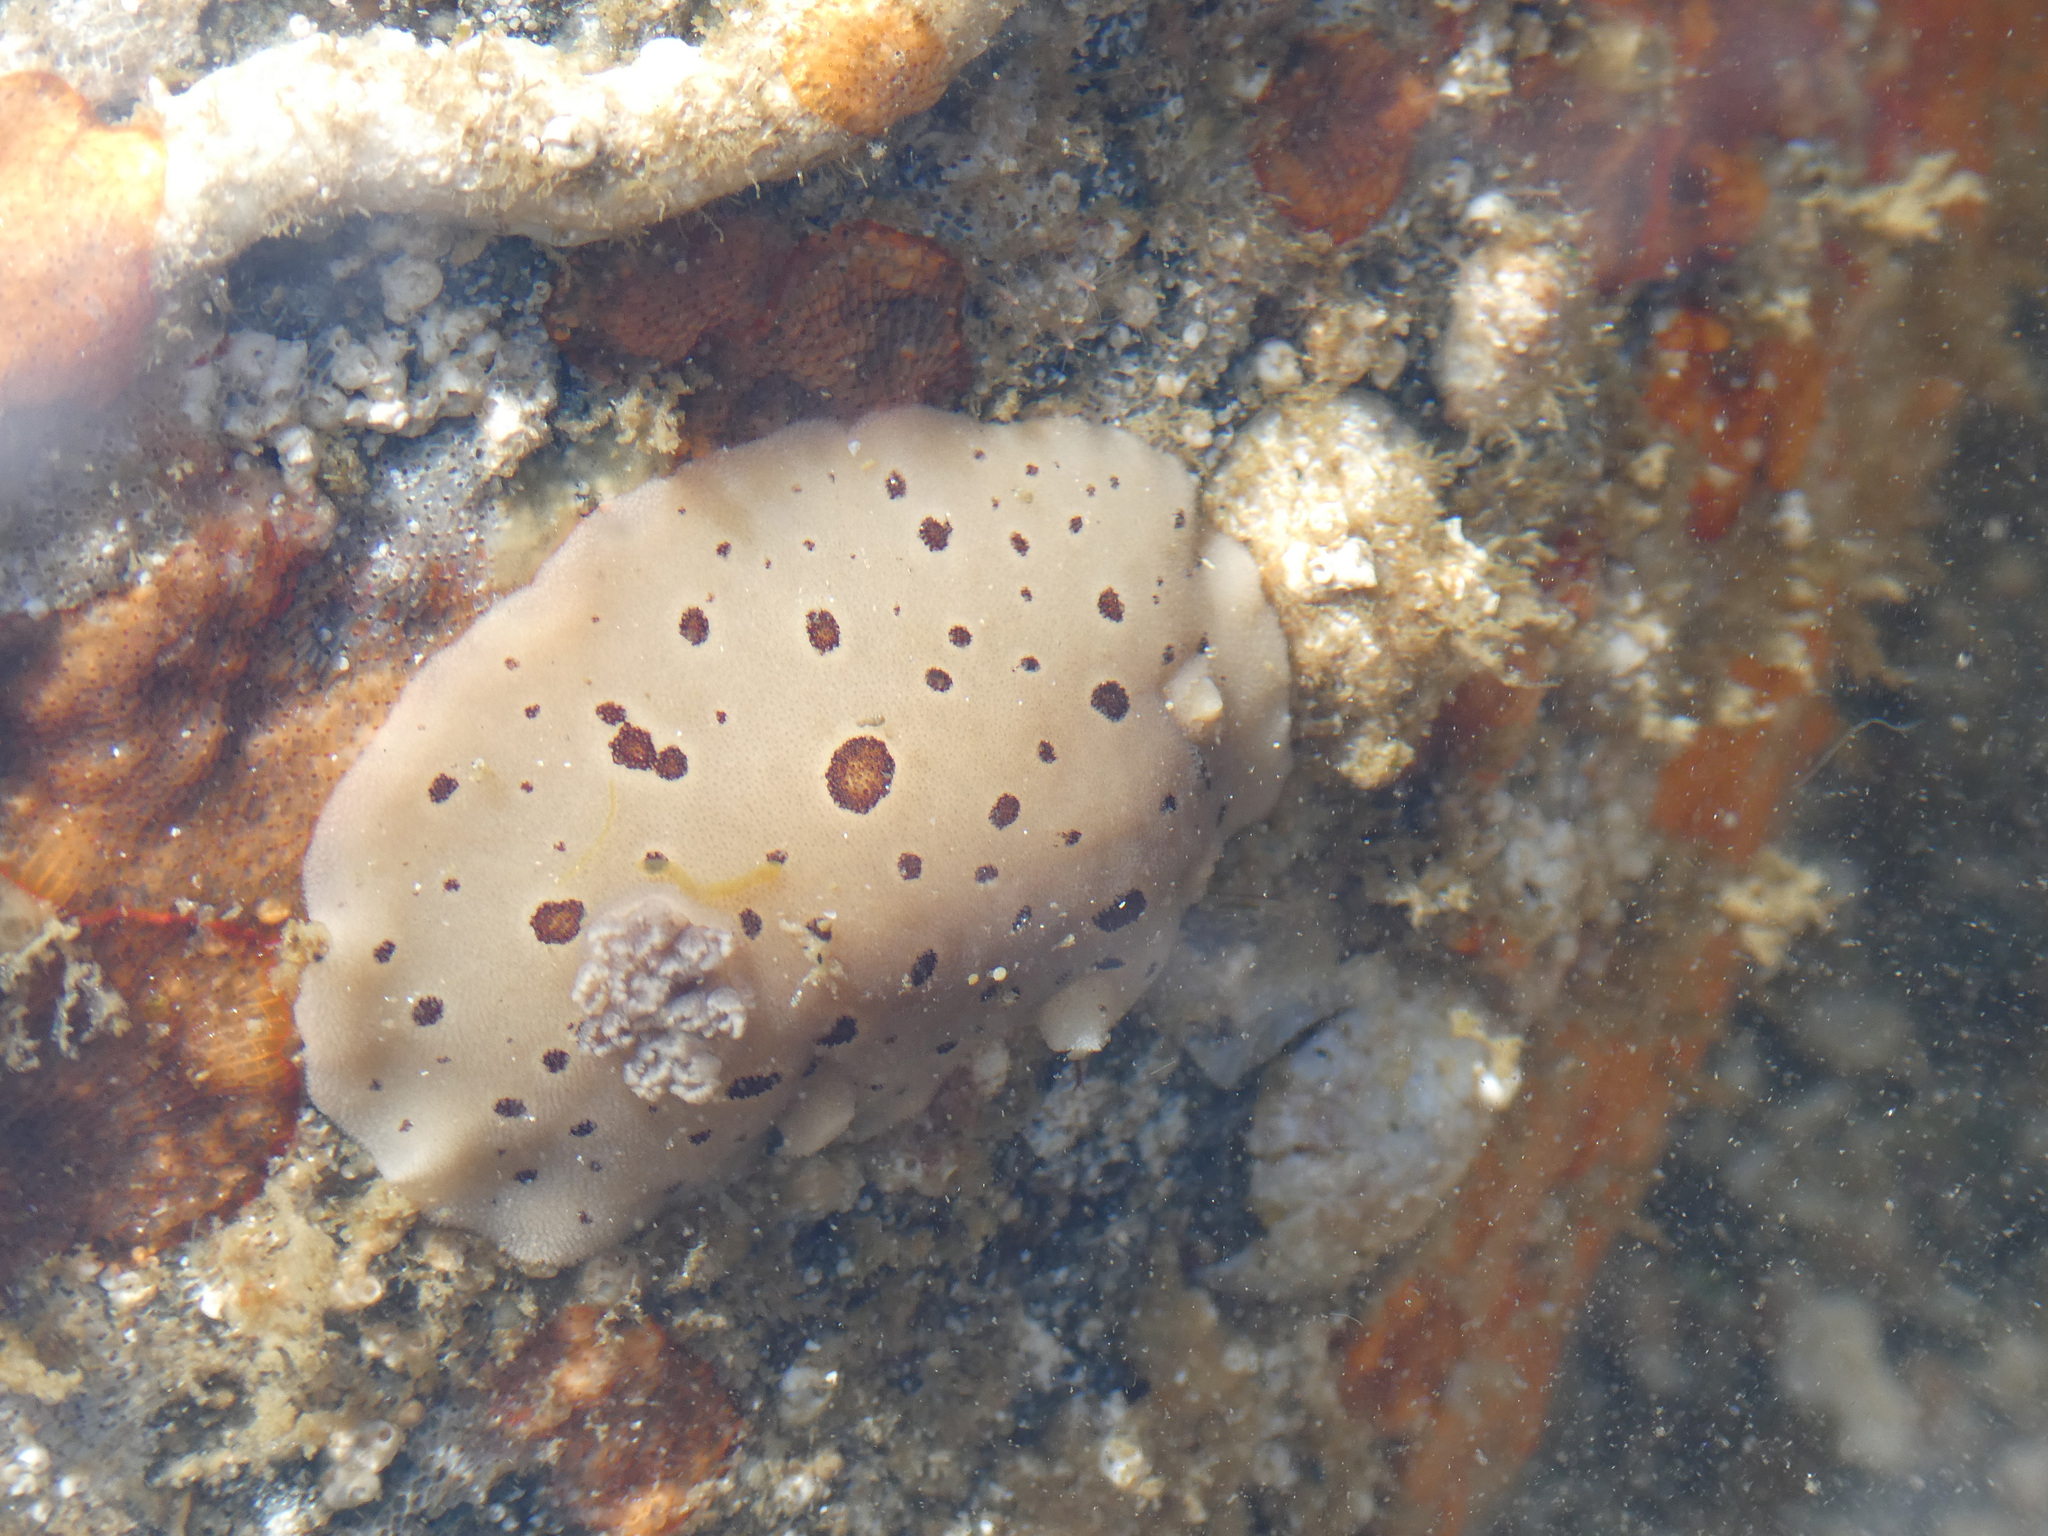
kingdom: Animalia
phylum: Mollusca
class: Gastropoda
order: Nudibranchia
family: Discodorididae
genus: Diaulula
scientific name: Diaulula odonoghuei
